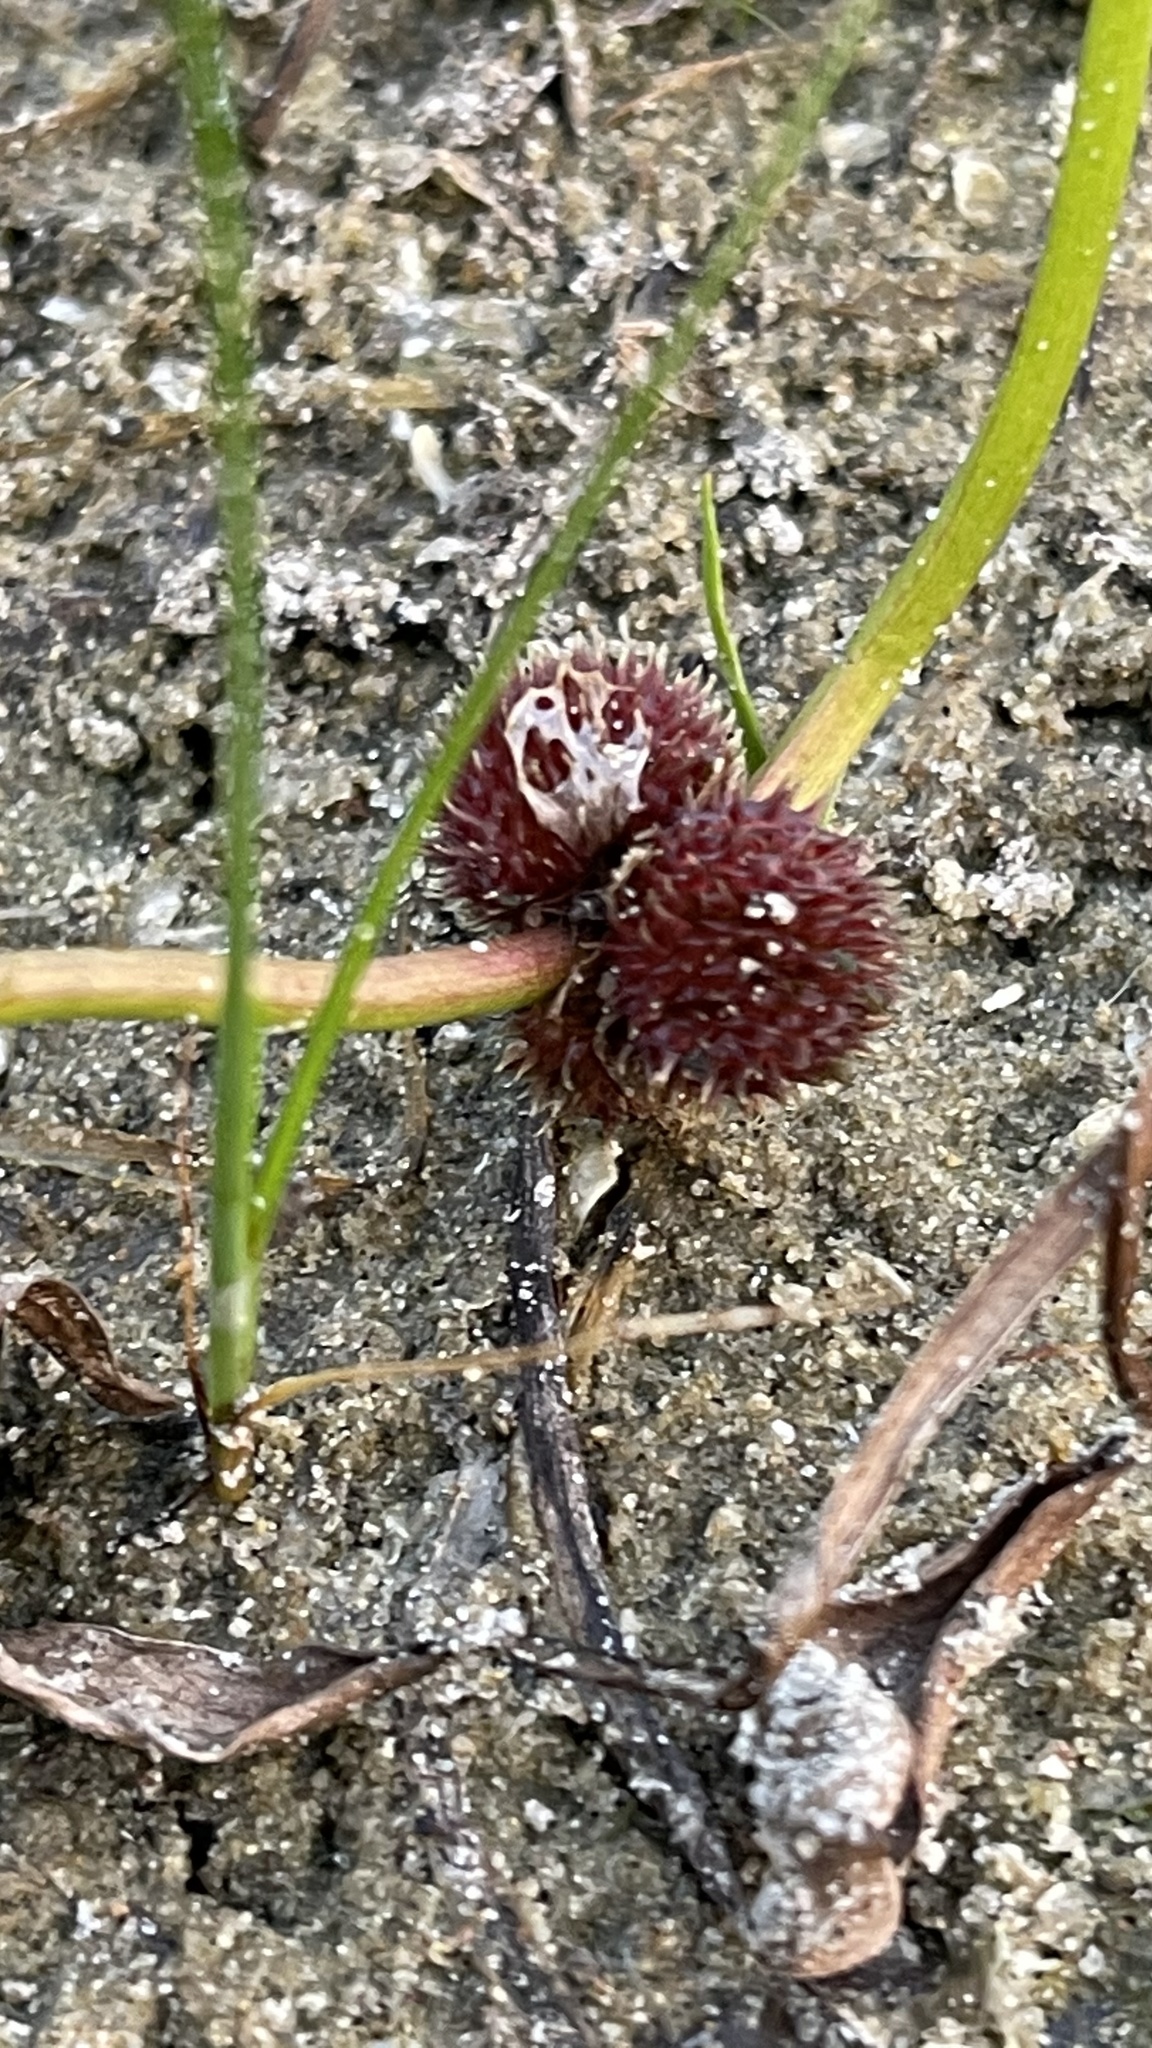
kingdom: Plantae
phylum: Tracheophyta
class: Liliopsida
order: Alismatales
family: Alismataceae
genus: Sagittaria
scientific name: Sagittaria rigida
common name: Canadian arrowhead
